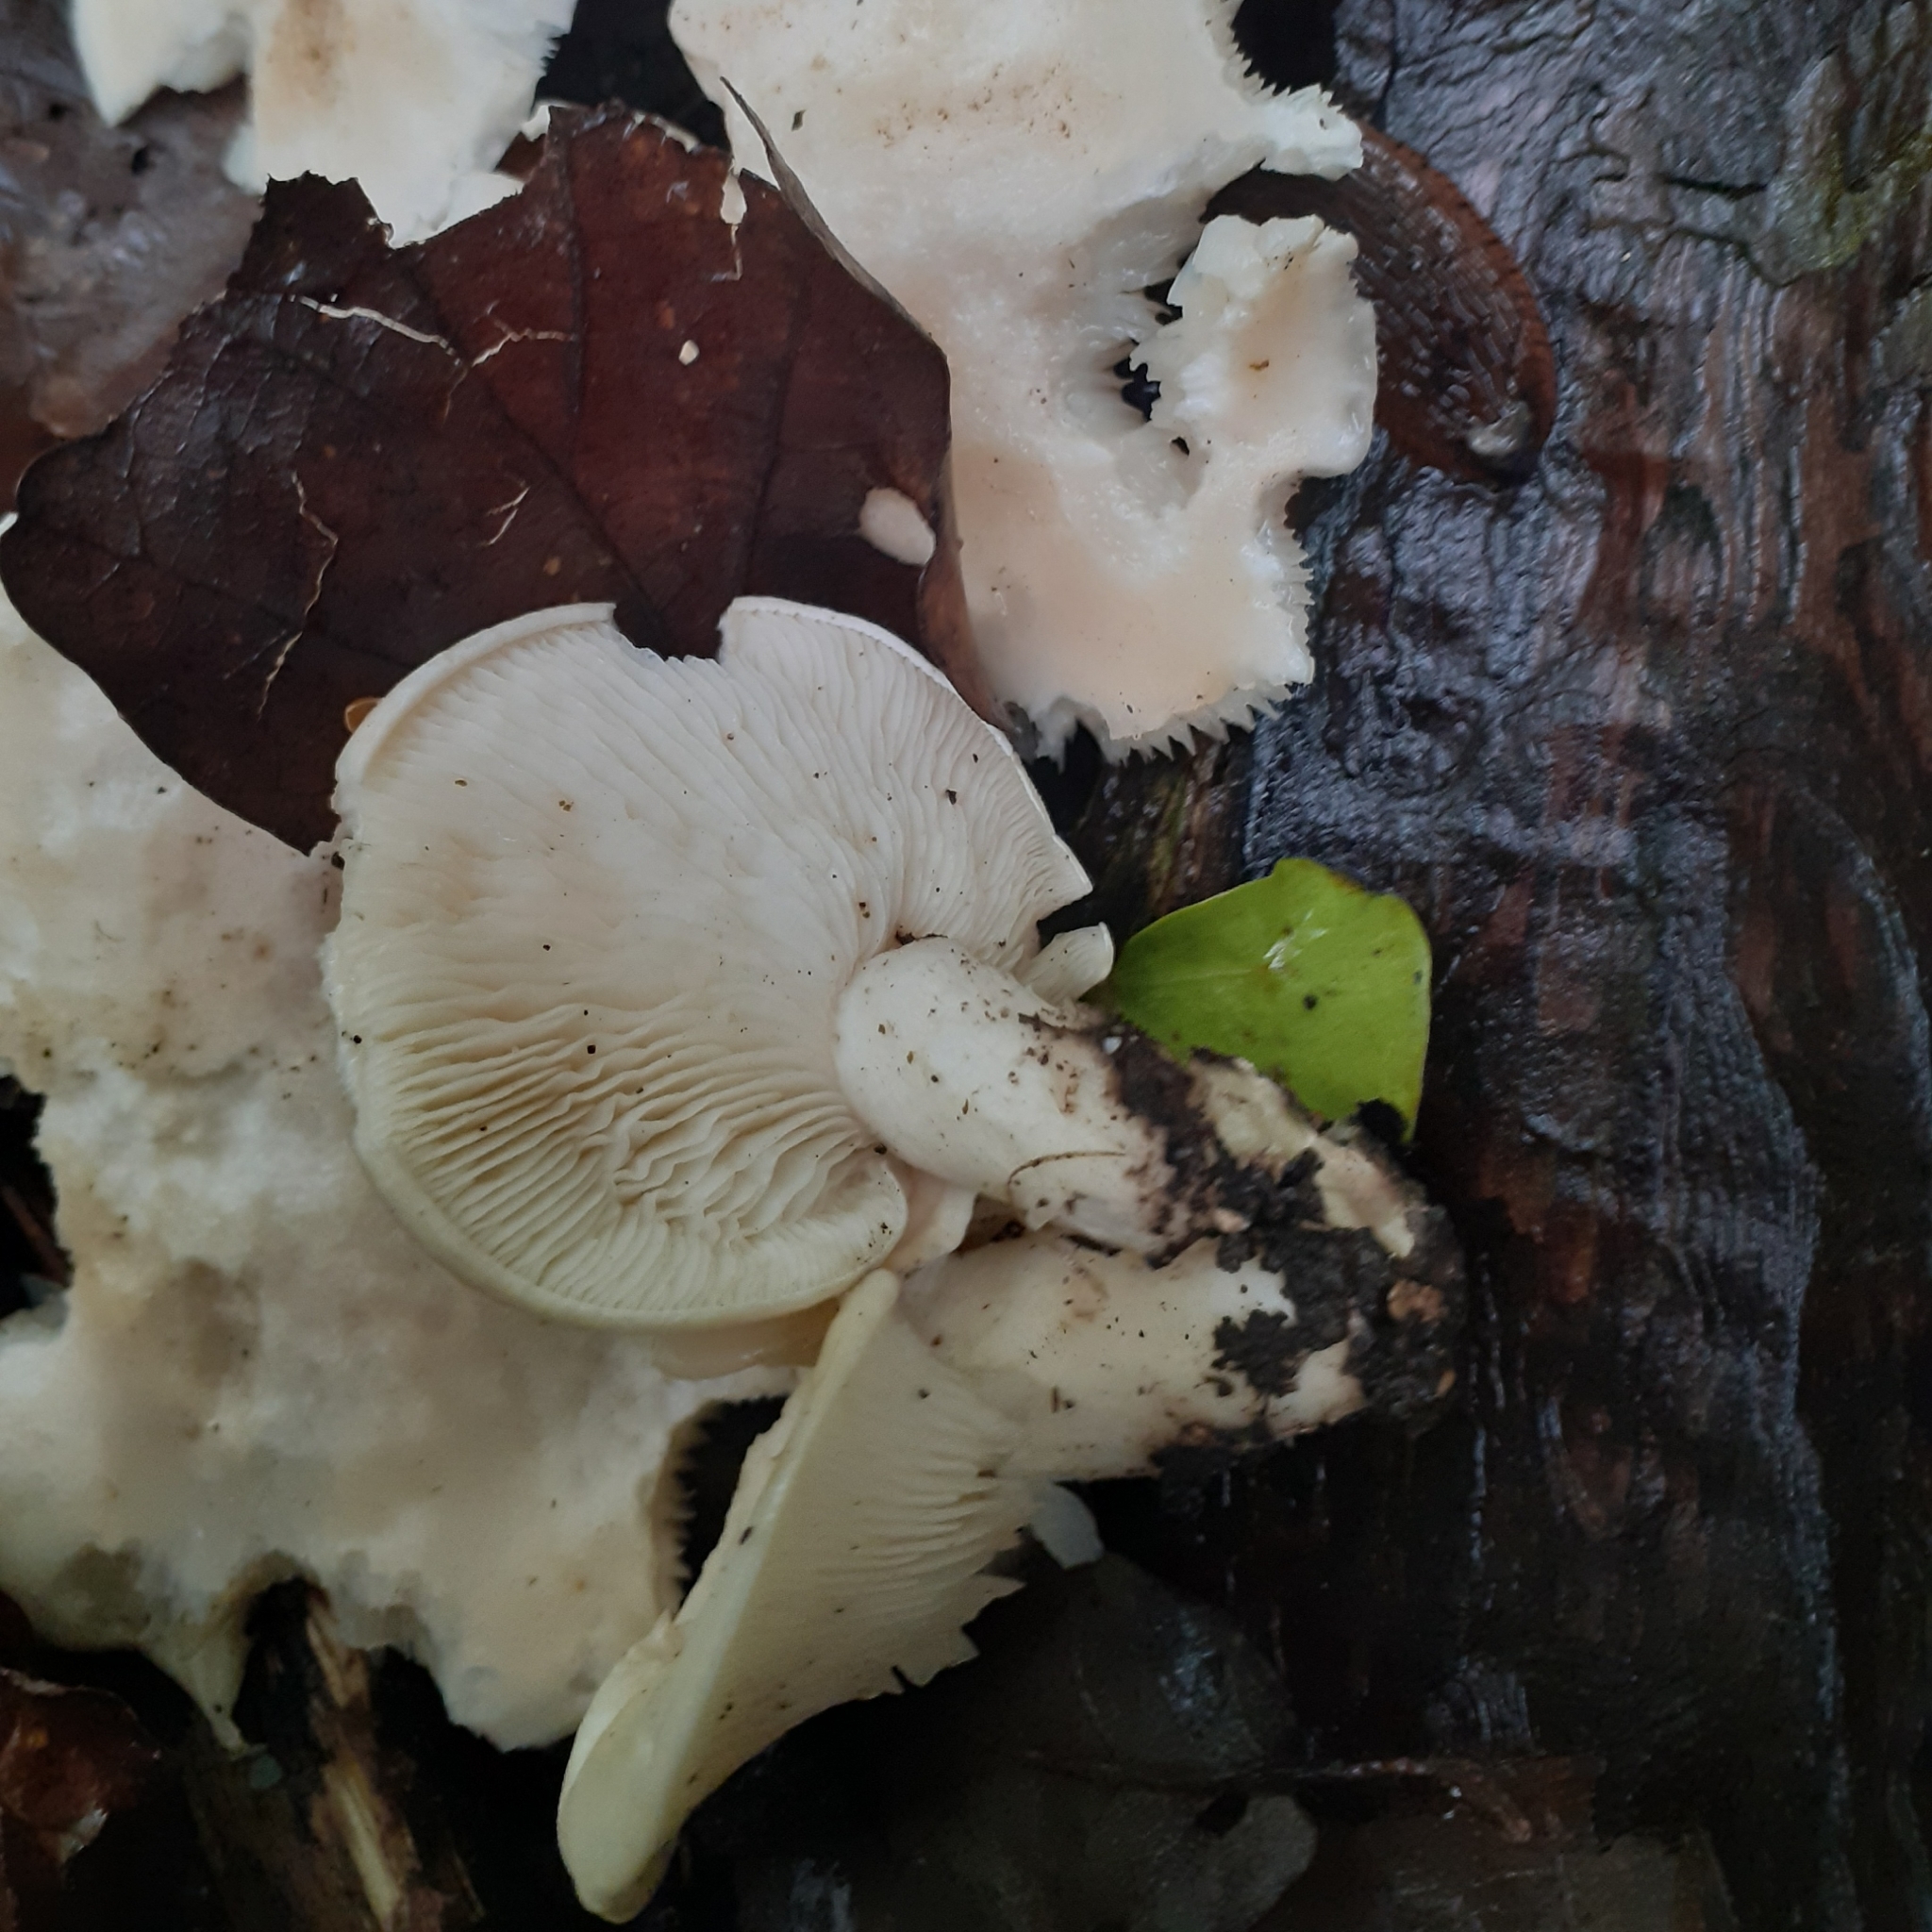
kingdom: Fungi
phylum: Basidiomycota
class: Agaricomycetes
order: Agaricales
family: Lyophyllaceae
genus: Calocybe
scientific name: Calocybe gambosa
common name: St. george's mushroom
